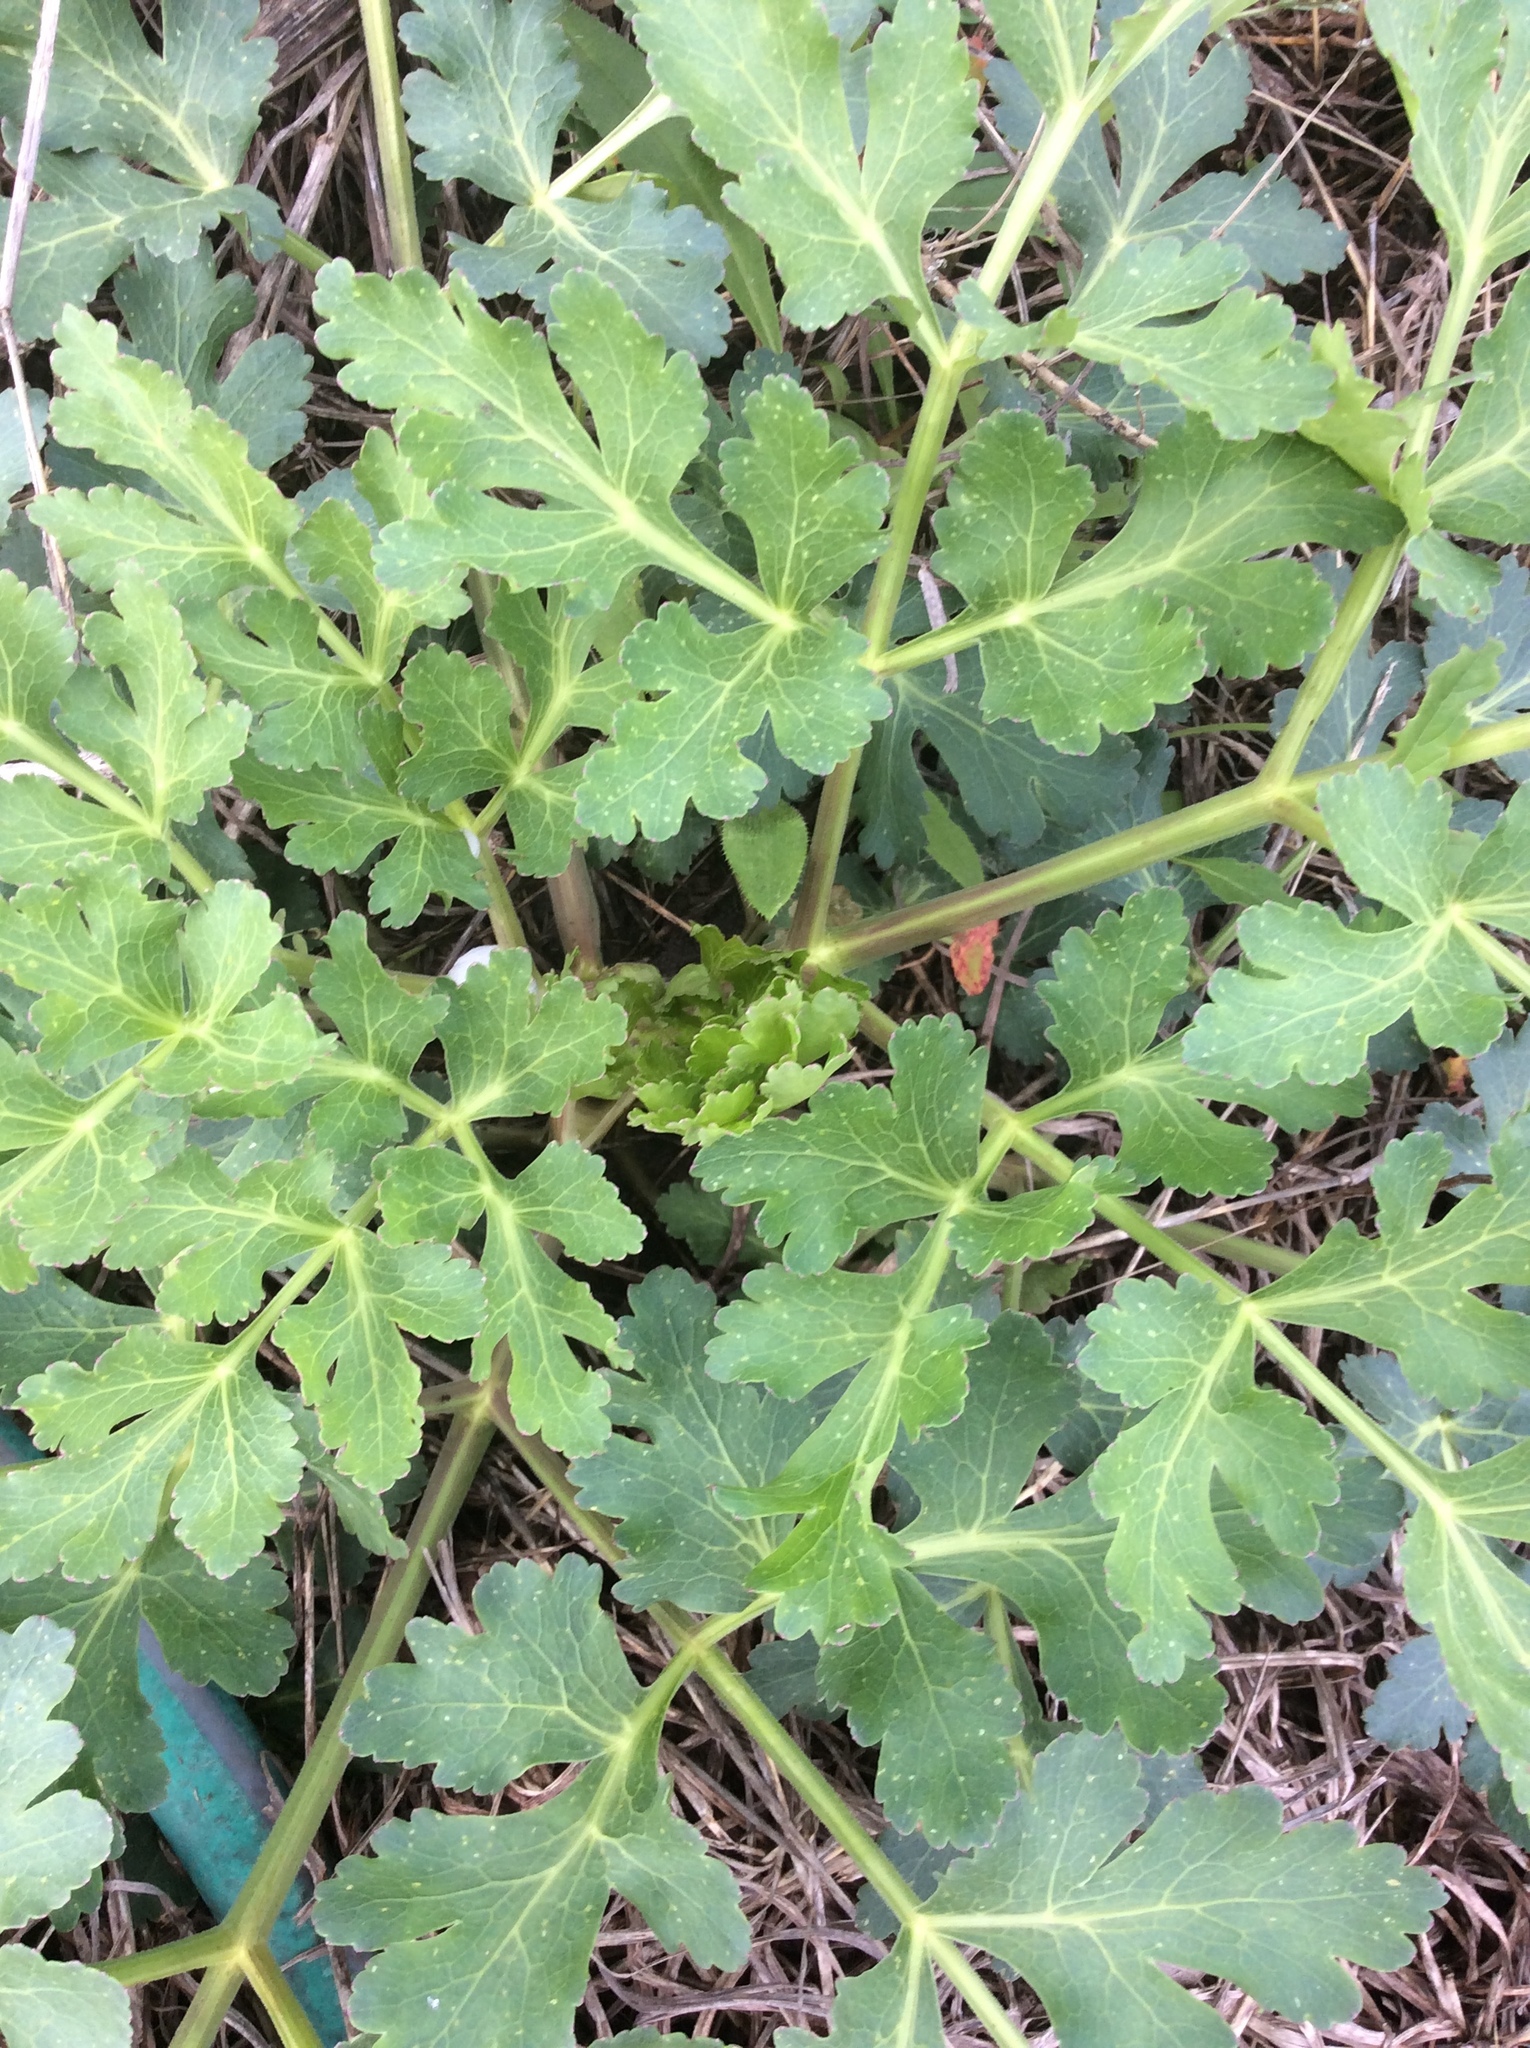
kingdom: Plantae
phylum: Tracheophyta
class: Magnoliopsida
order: Apiales
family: Apiaceae
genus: Polytaenia
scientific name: Polytaenia texana
